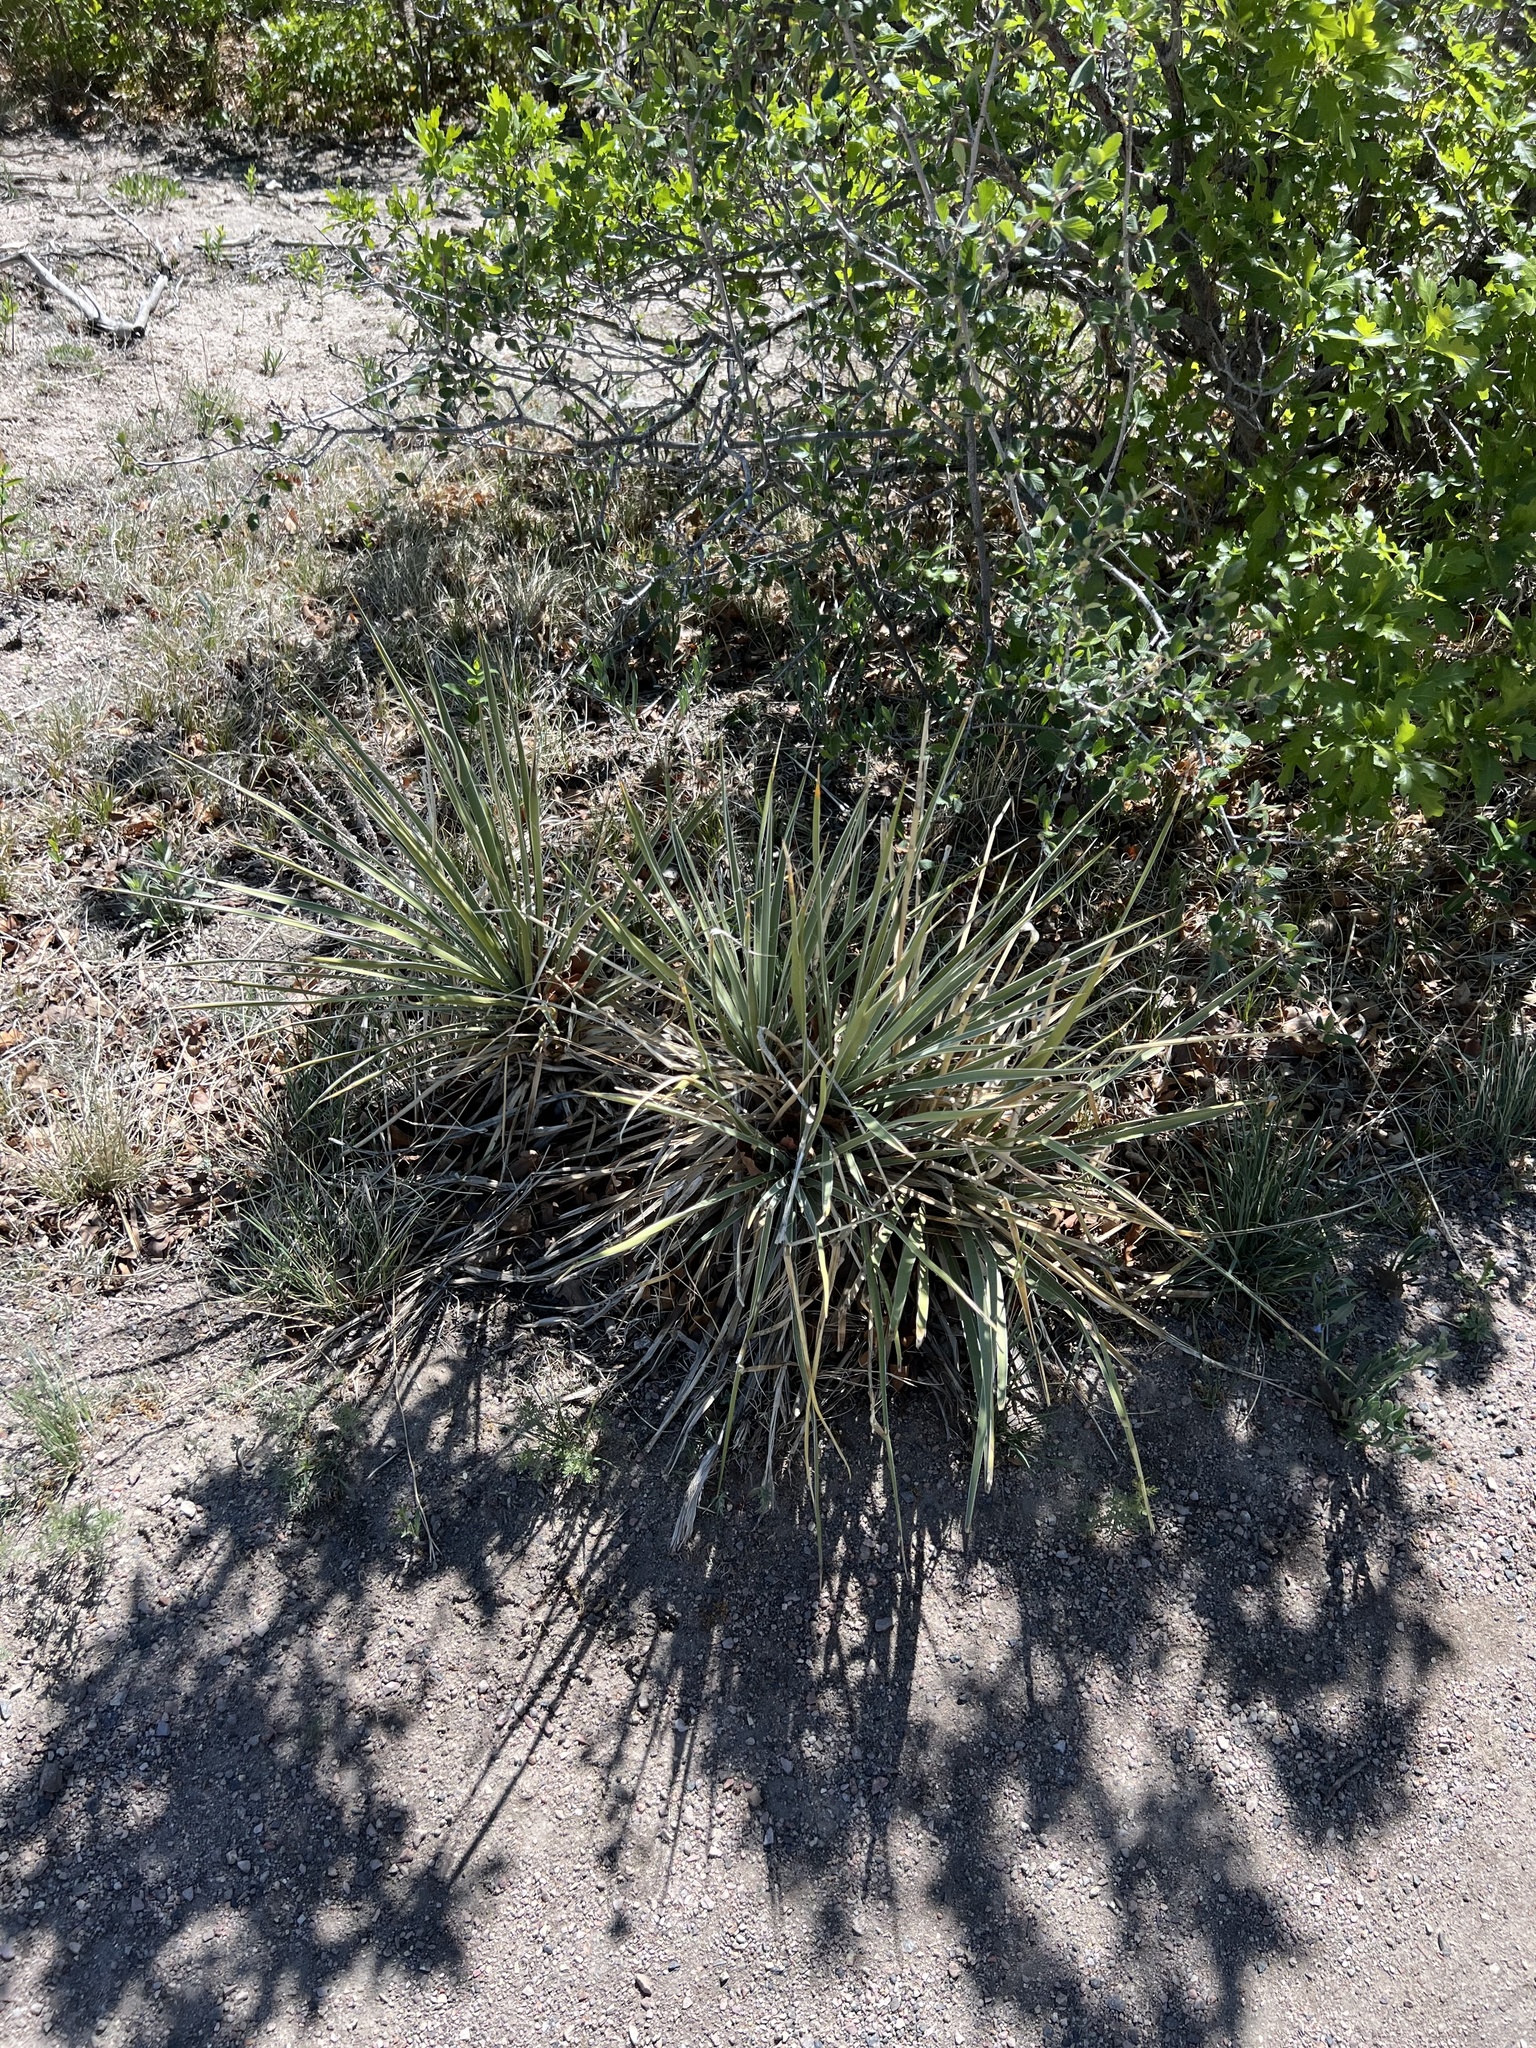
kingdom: Plantae
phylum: Tracheophyta
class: Liliopsida
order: Asparagales
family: Asparagaceae
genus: Yucca
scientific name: Yucca glauca
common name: Great plains yucca
